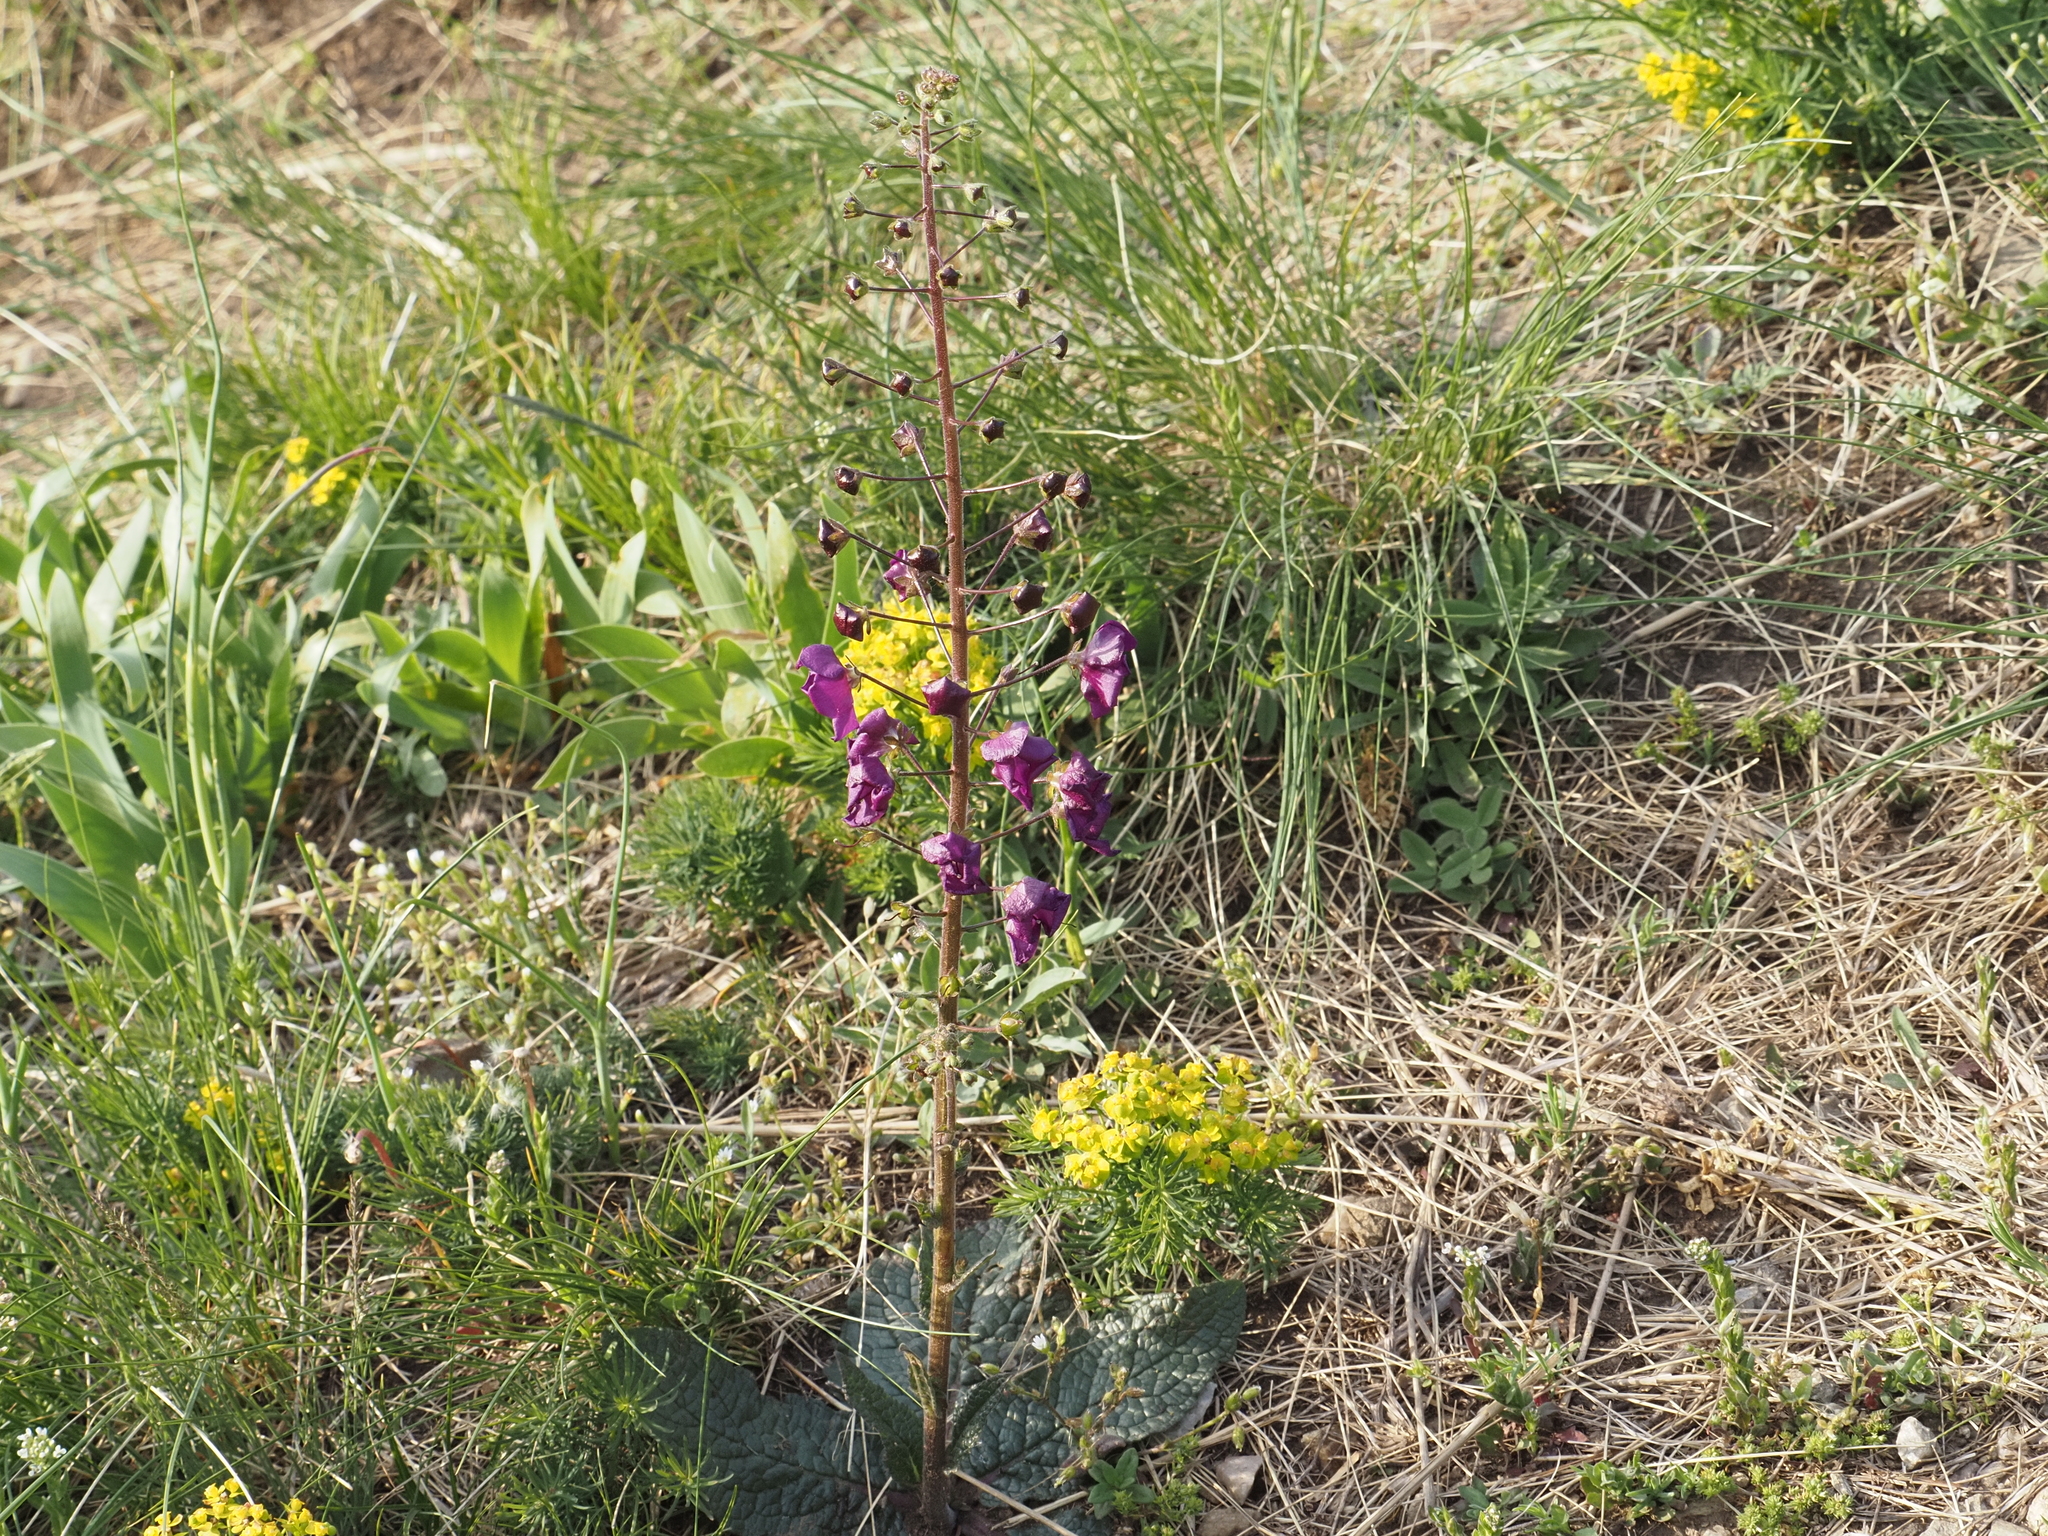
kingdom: Plantae
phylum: Tracheophyta
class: Magnoliopsida
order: Lamiales
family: Scrophulariaceae
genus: Verbascum
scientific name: Verbascum phoeniceum
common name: Purple mullein
